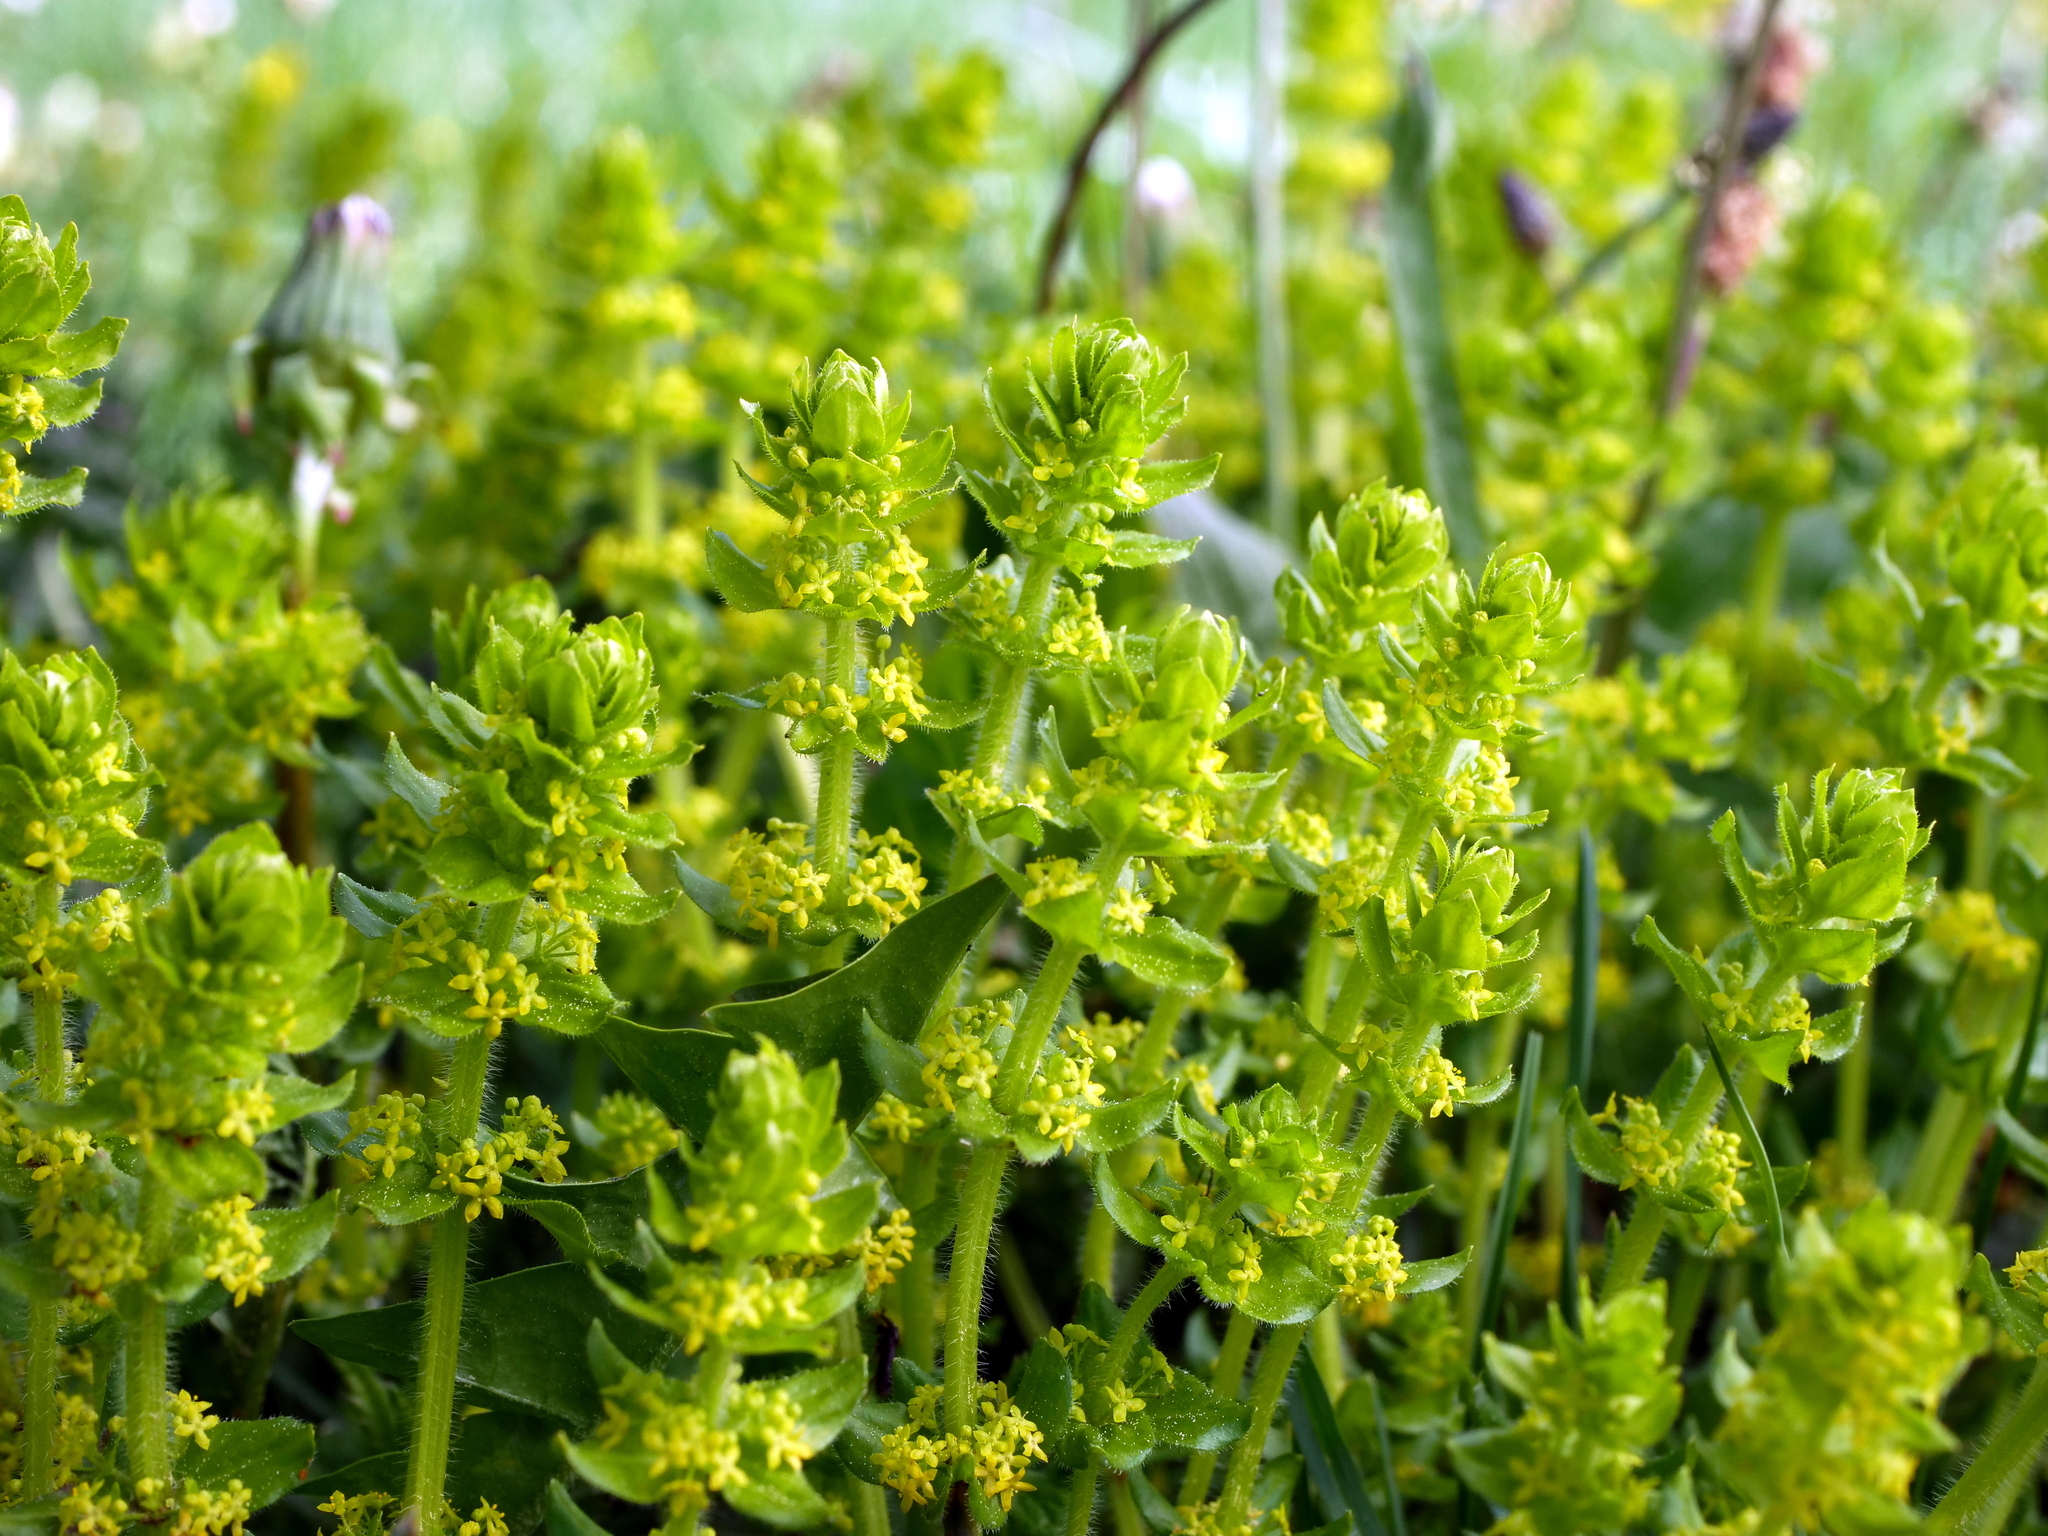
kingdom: Plantae
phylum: Tracheophyta
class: Magnoliopsida
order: Gentianales
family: Rubiaceae
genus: Cruciata
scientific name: Cruciata laevipes
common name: Crosswort
